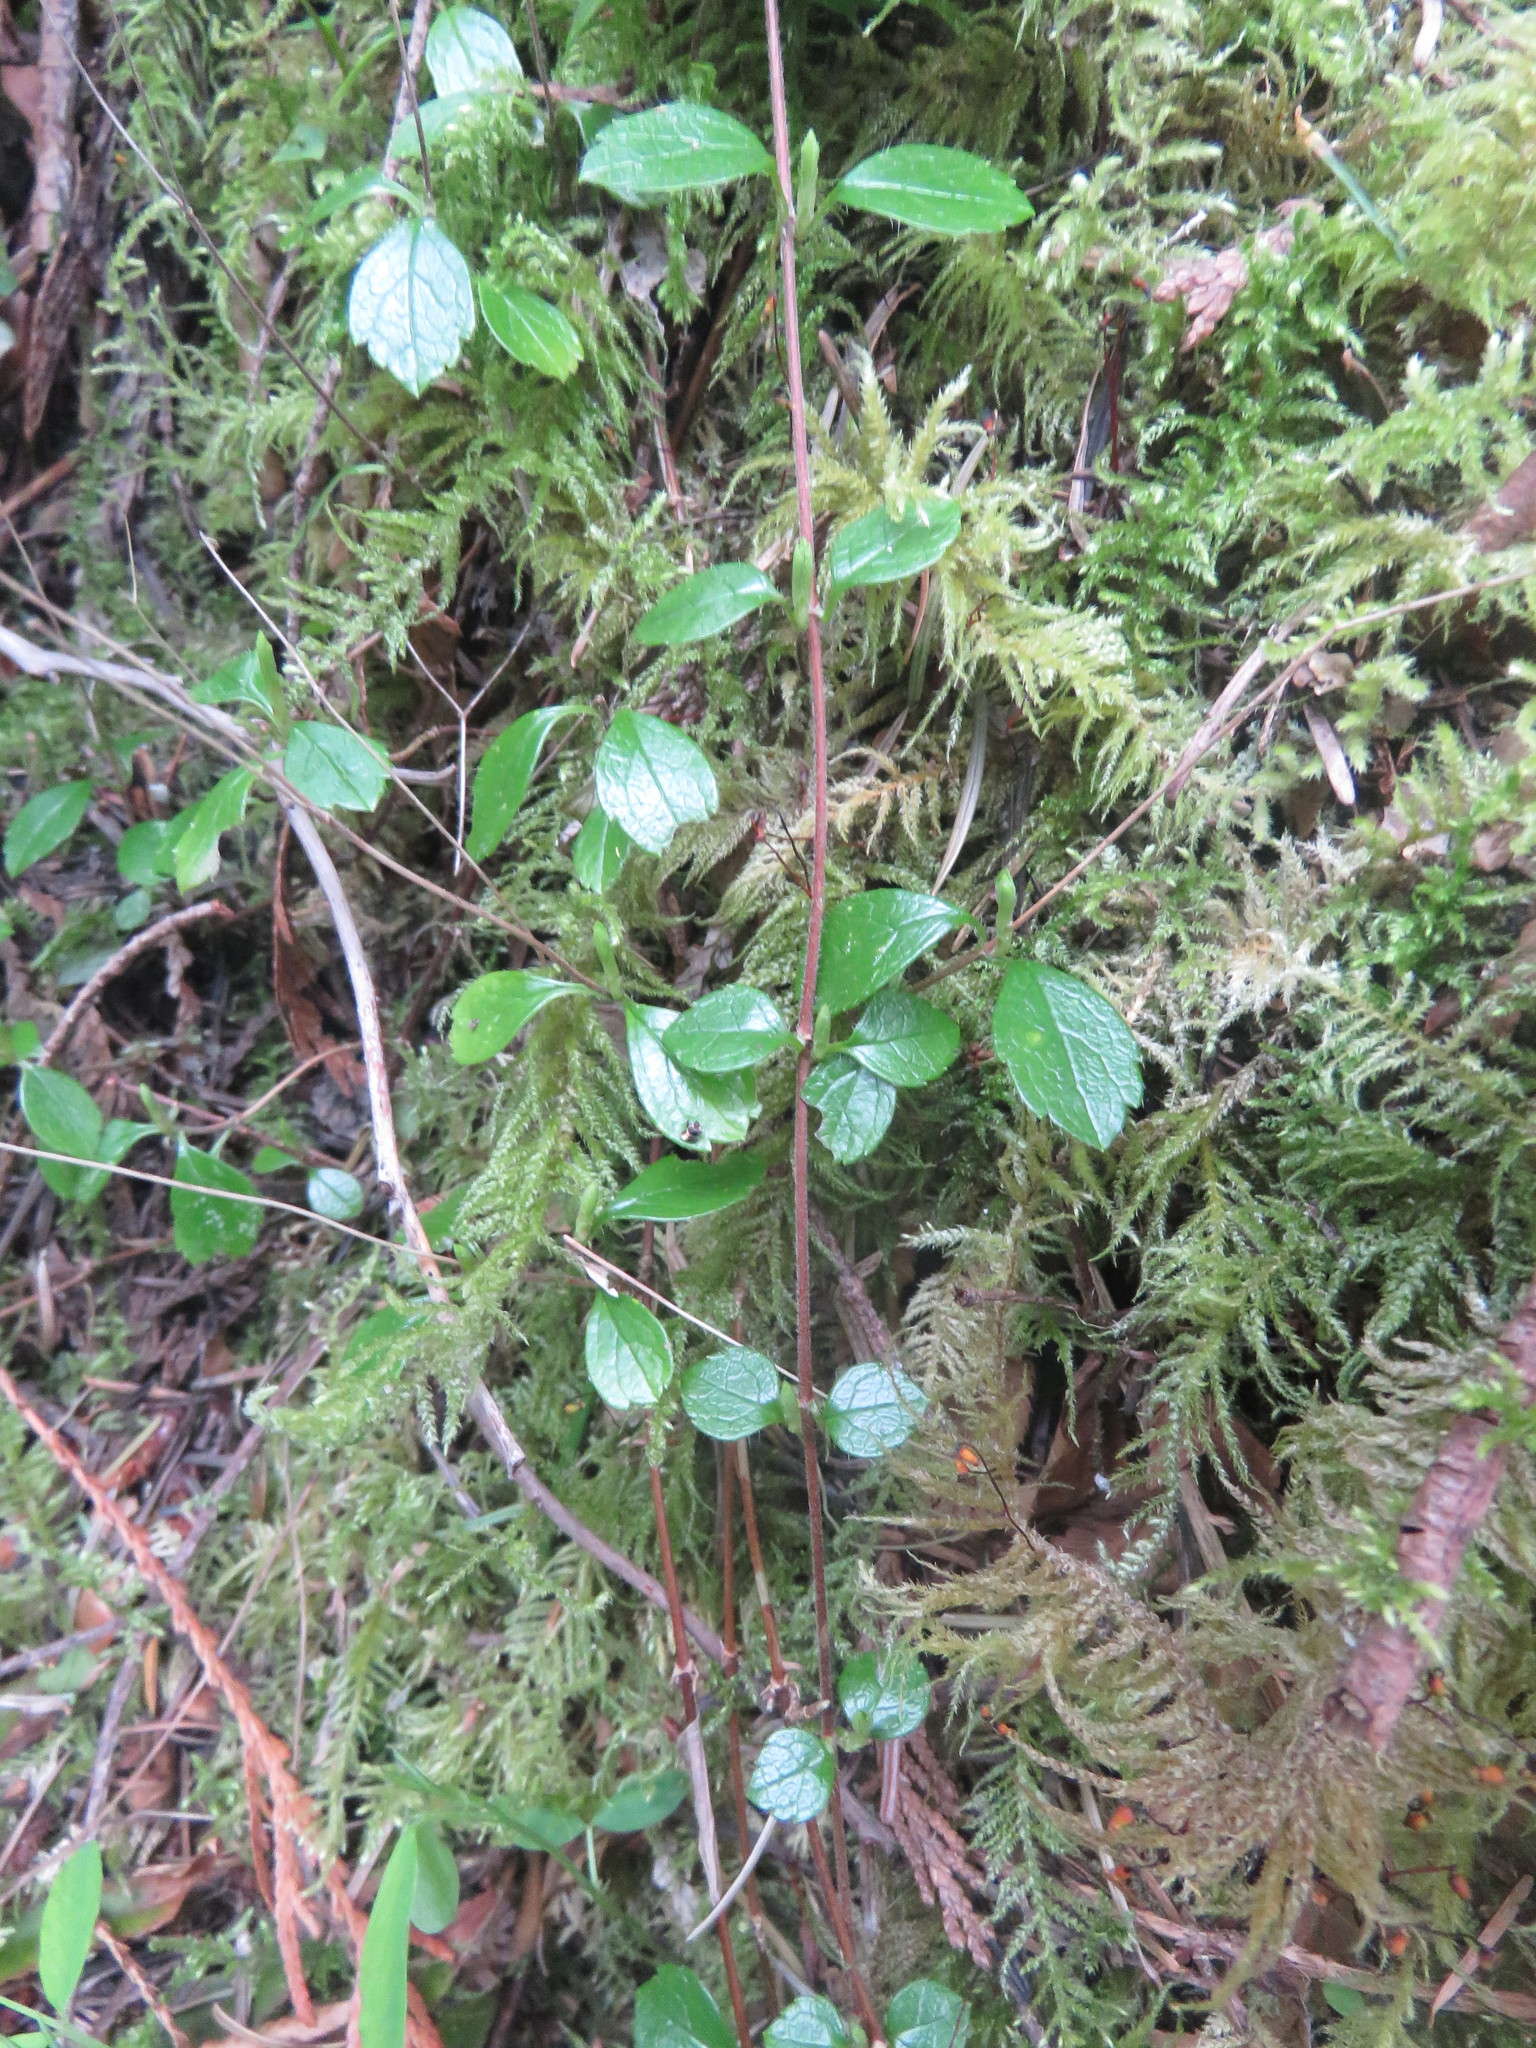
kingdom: Plantae
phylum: Tracheophyta
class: Magnoliopsida
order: Dipsacales
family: Caprifoliaceae
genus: Linnaea
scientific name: Linnaea borealis
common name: Twinflower
